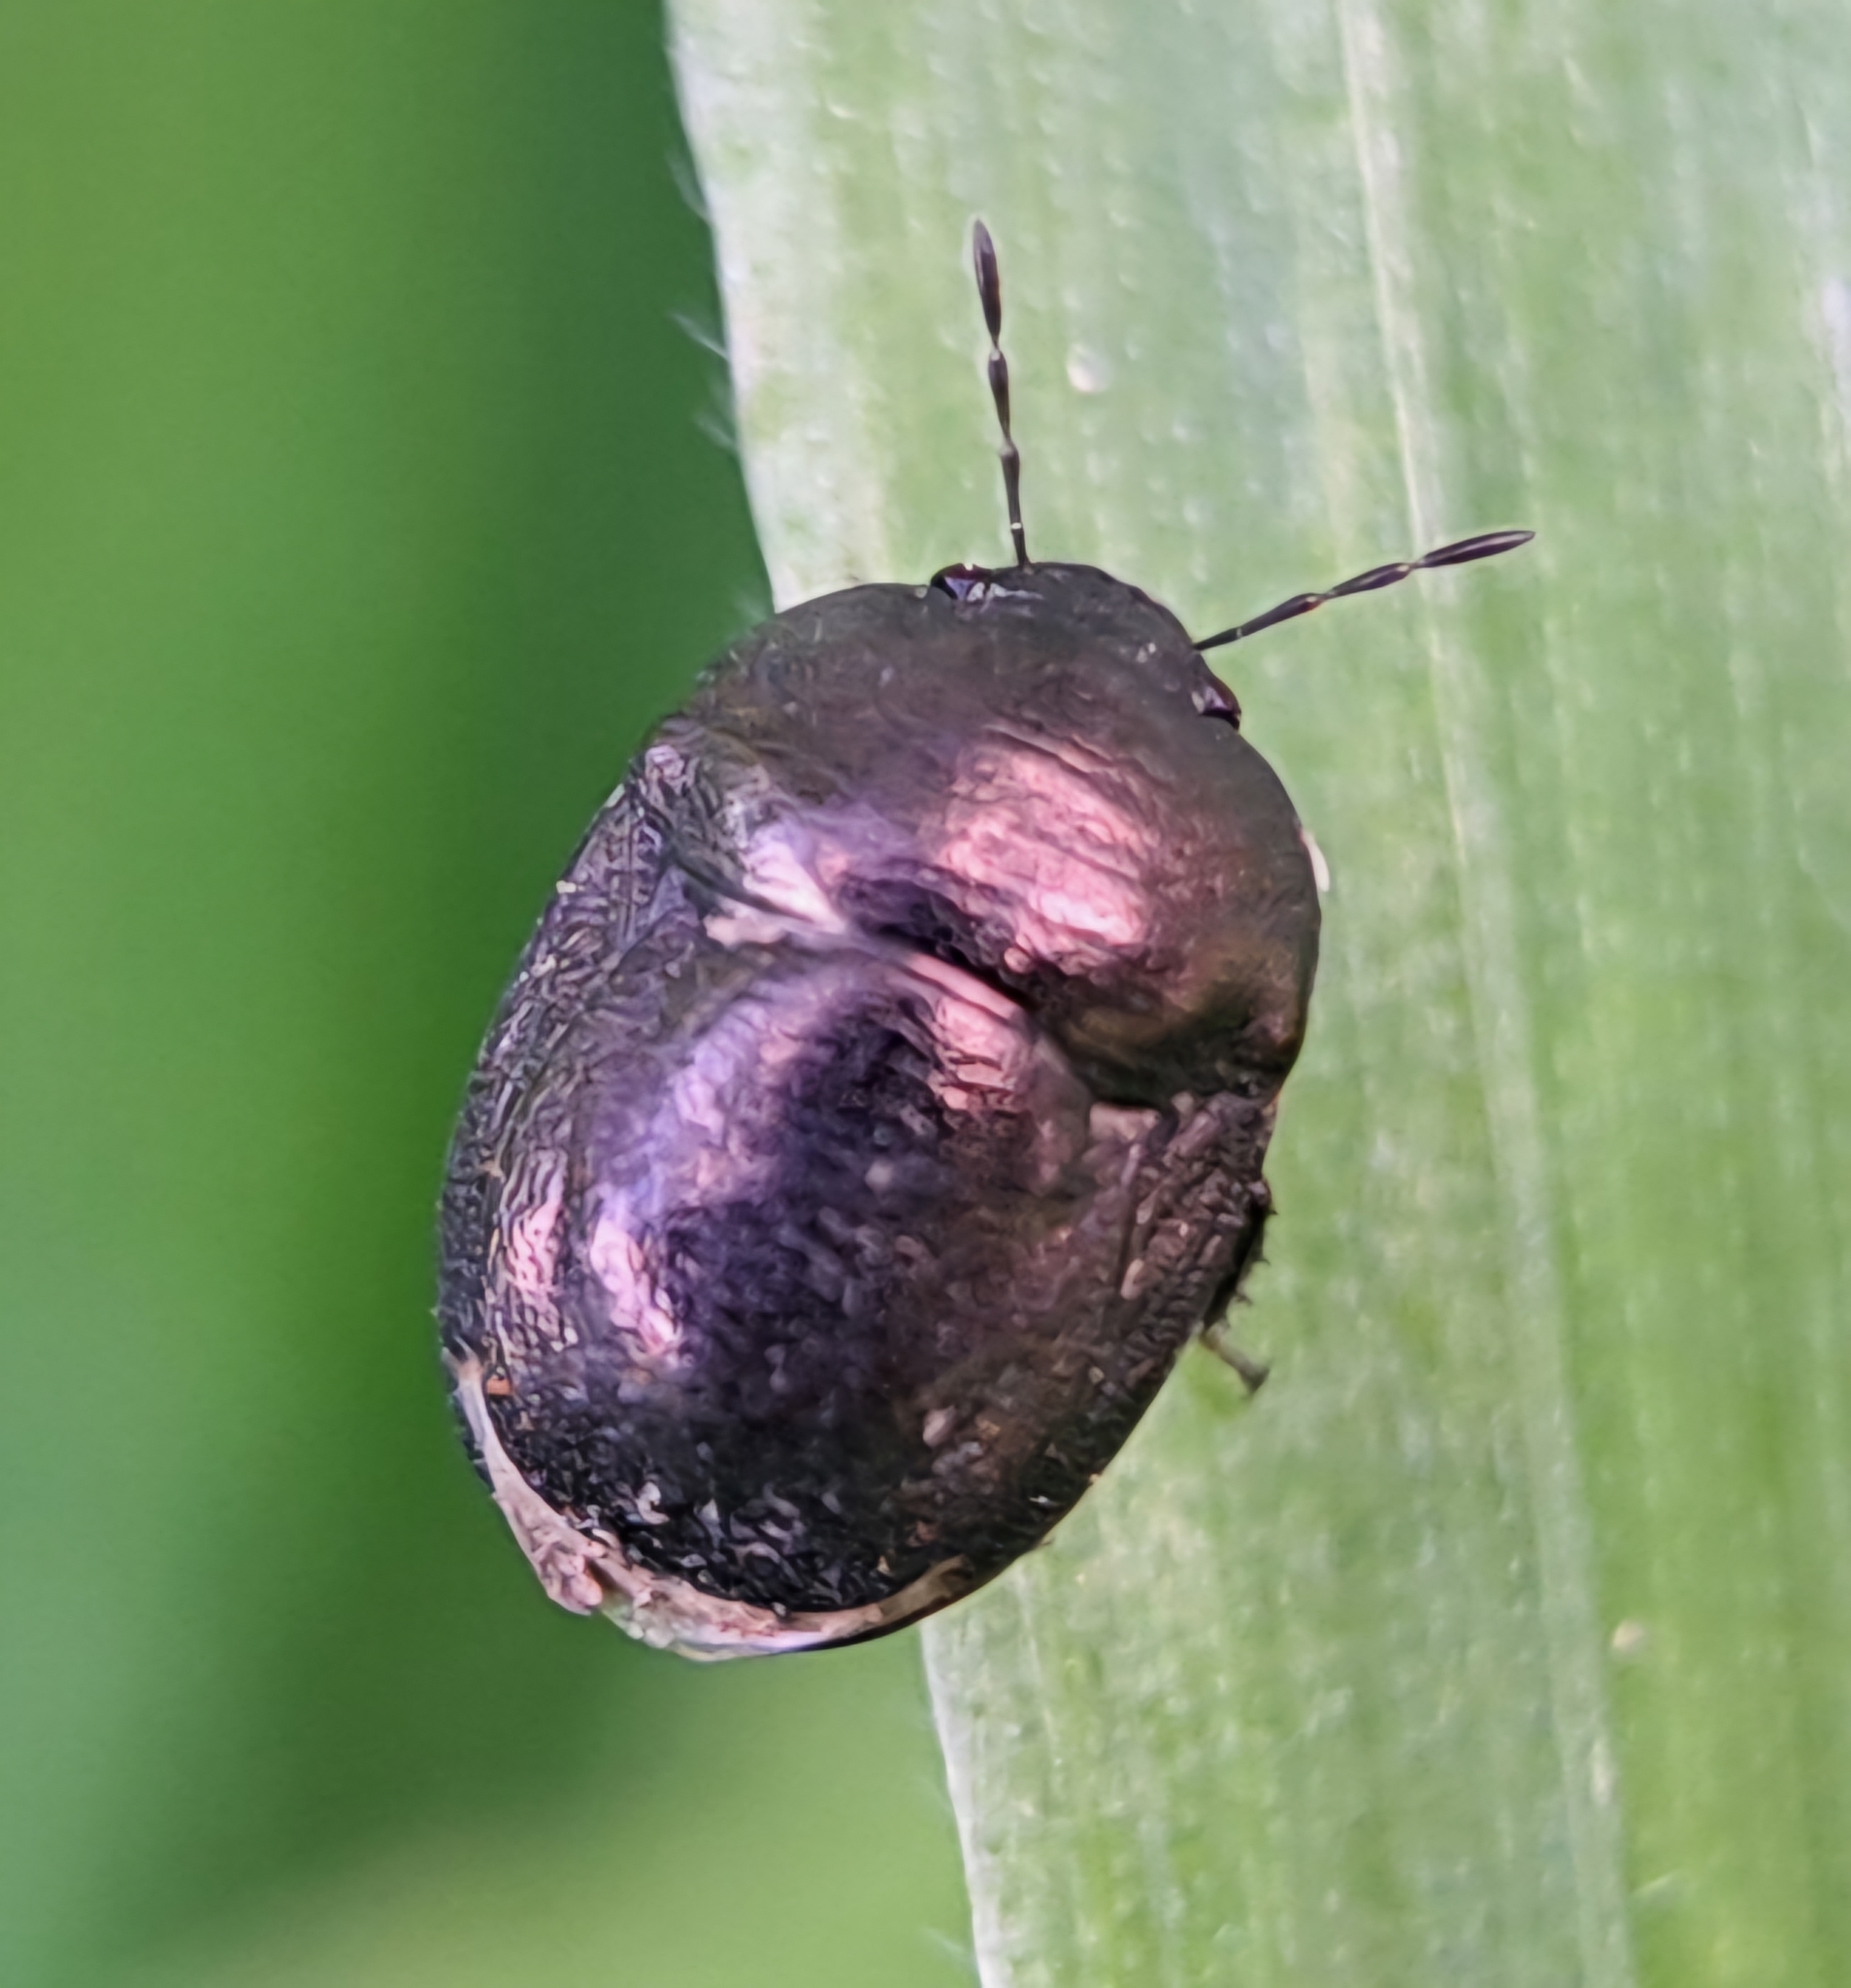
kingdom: Animalia
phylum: Arthropoda
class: Insecta
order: Hemiptera
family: Thyreocoridae
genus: Thyreocoris
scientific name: Thyreocoris scarabaeoides
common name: Negro bug
